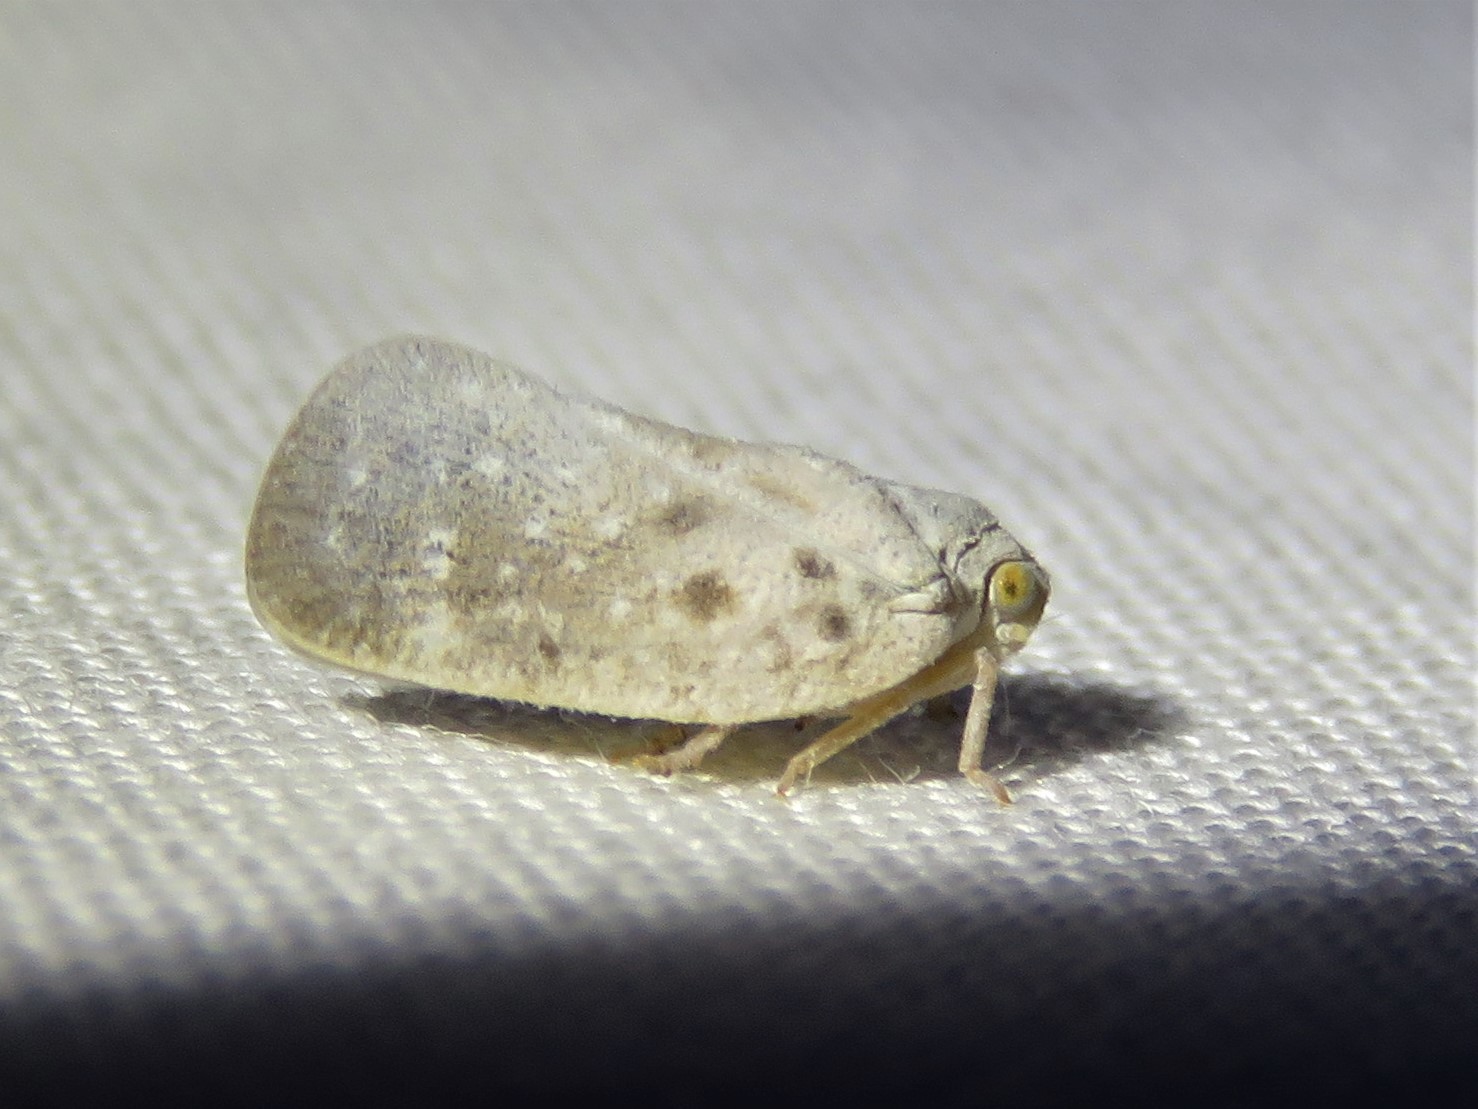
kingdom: Animalia
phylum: Arthropoda
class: Insecta
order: Hemiptera
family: Flatidae
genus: Metcalfa
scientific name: Metcalfa pruinosa
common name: Citrus flatid planthopper
